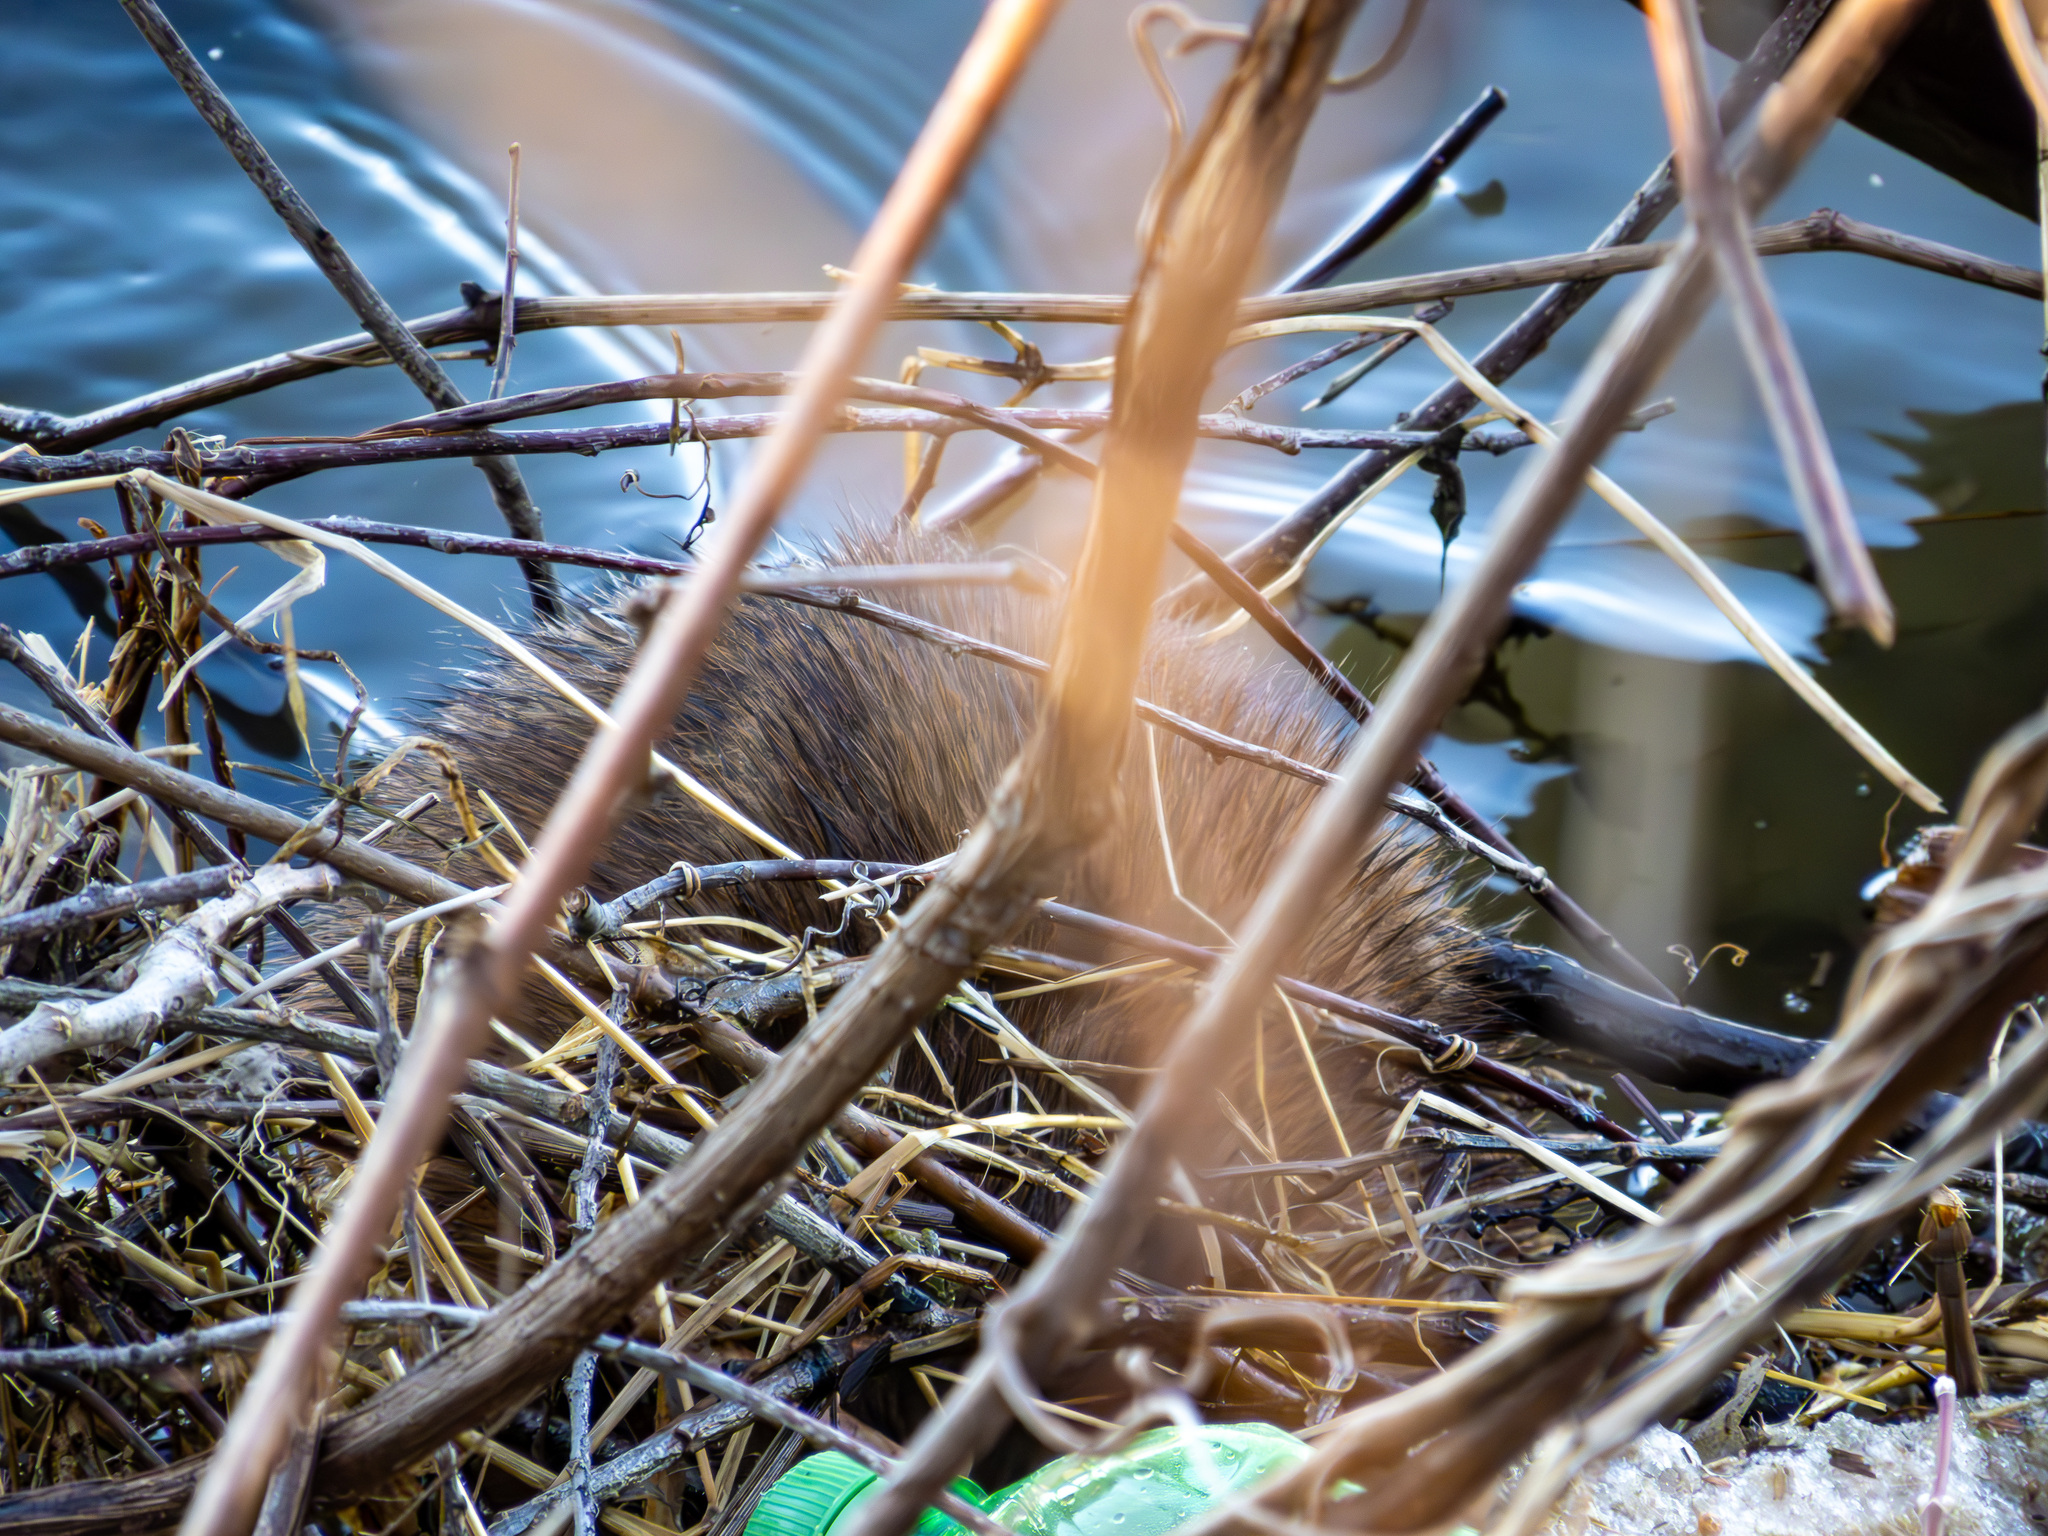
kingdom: Animalia
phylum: Chordata
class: Mammalia
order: Rodentia
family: Cricetidae
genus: Ondatra
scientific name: Ondatra zibethicus
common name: Muskrat
